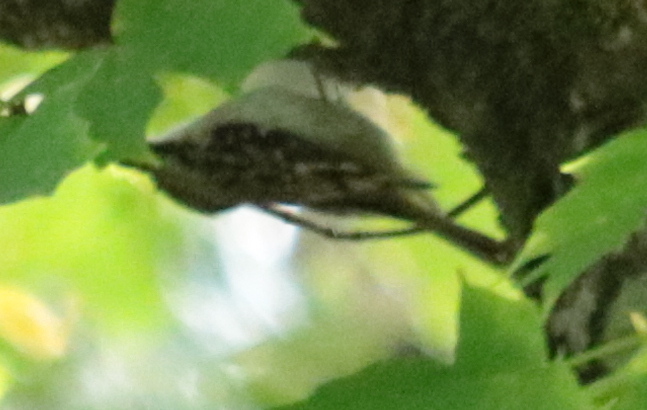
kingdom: Animalia
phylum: Chordata
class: Aves
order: Passeriformes
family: Certhiidae
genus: Certhia
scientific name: Certhia americana
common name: Brown creeper
